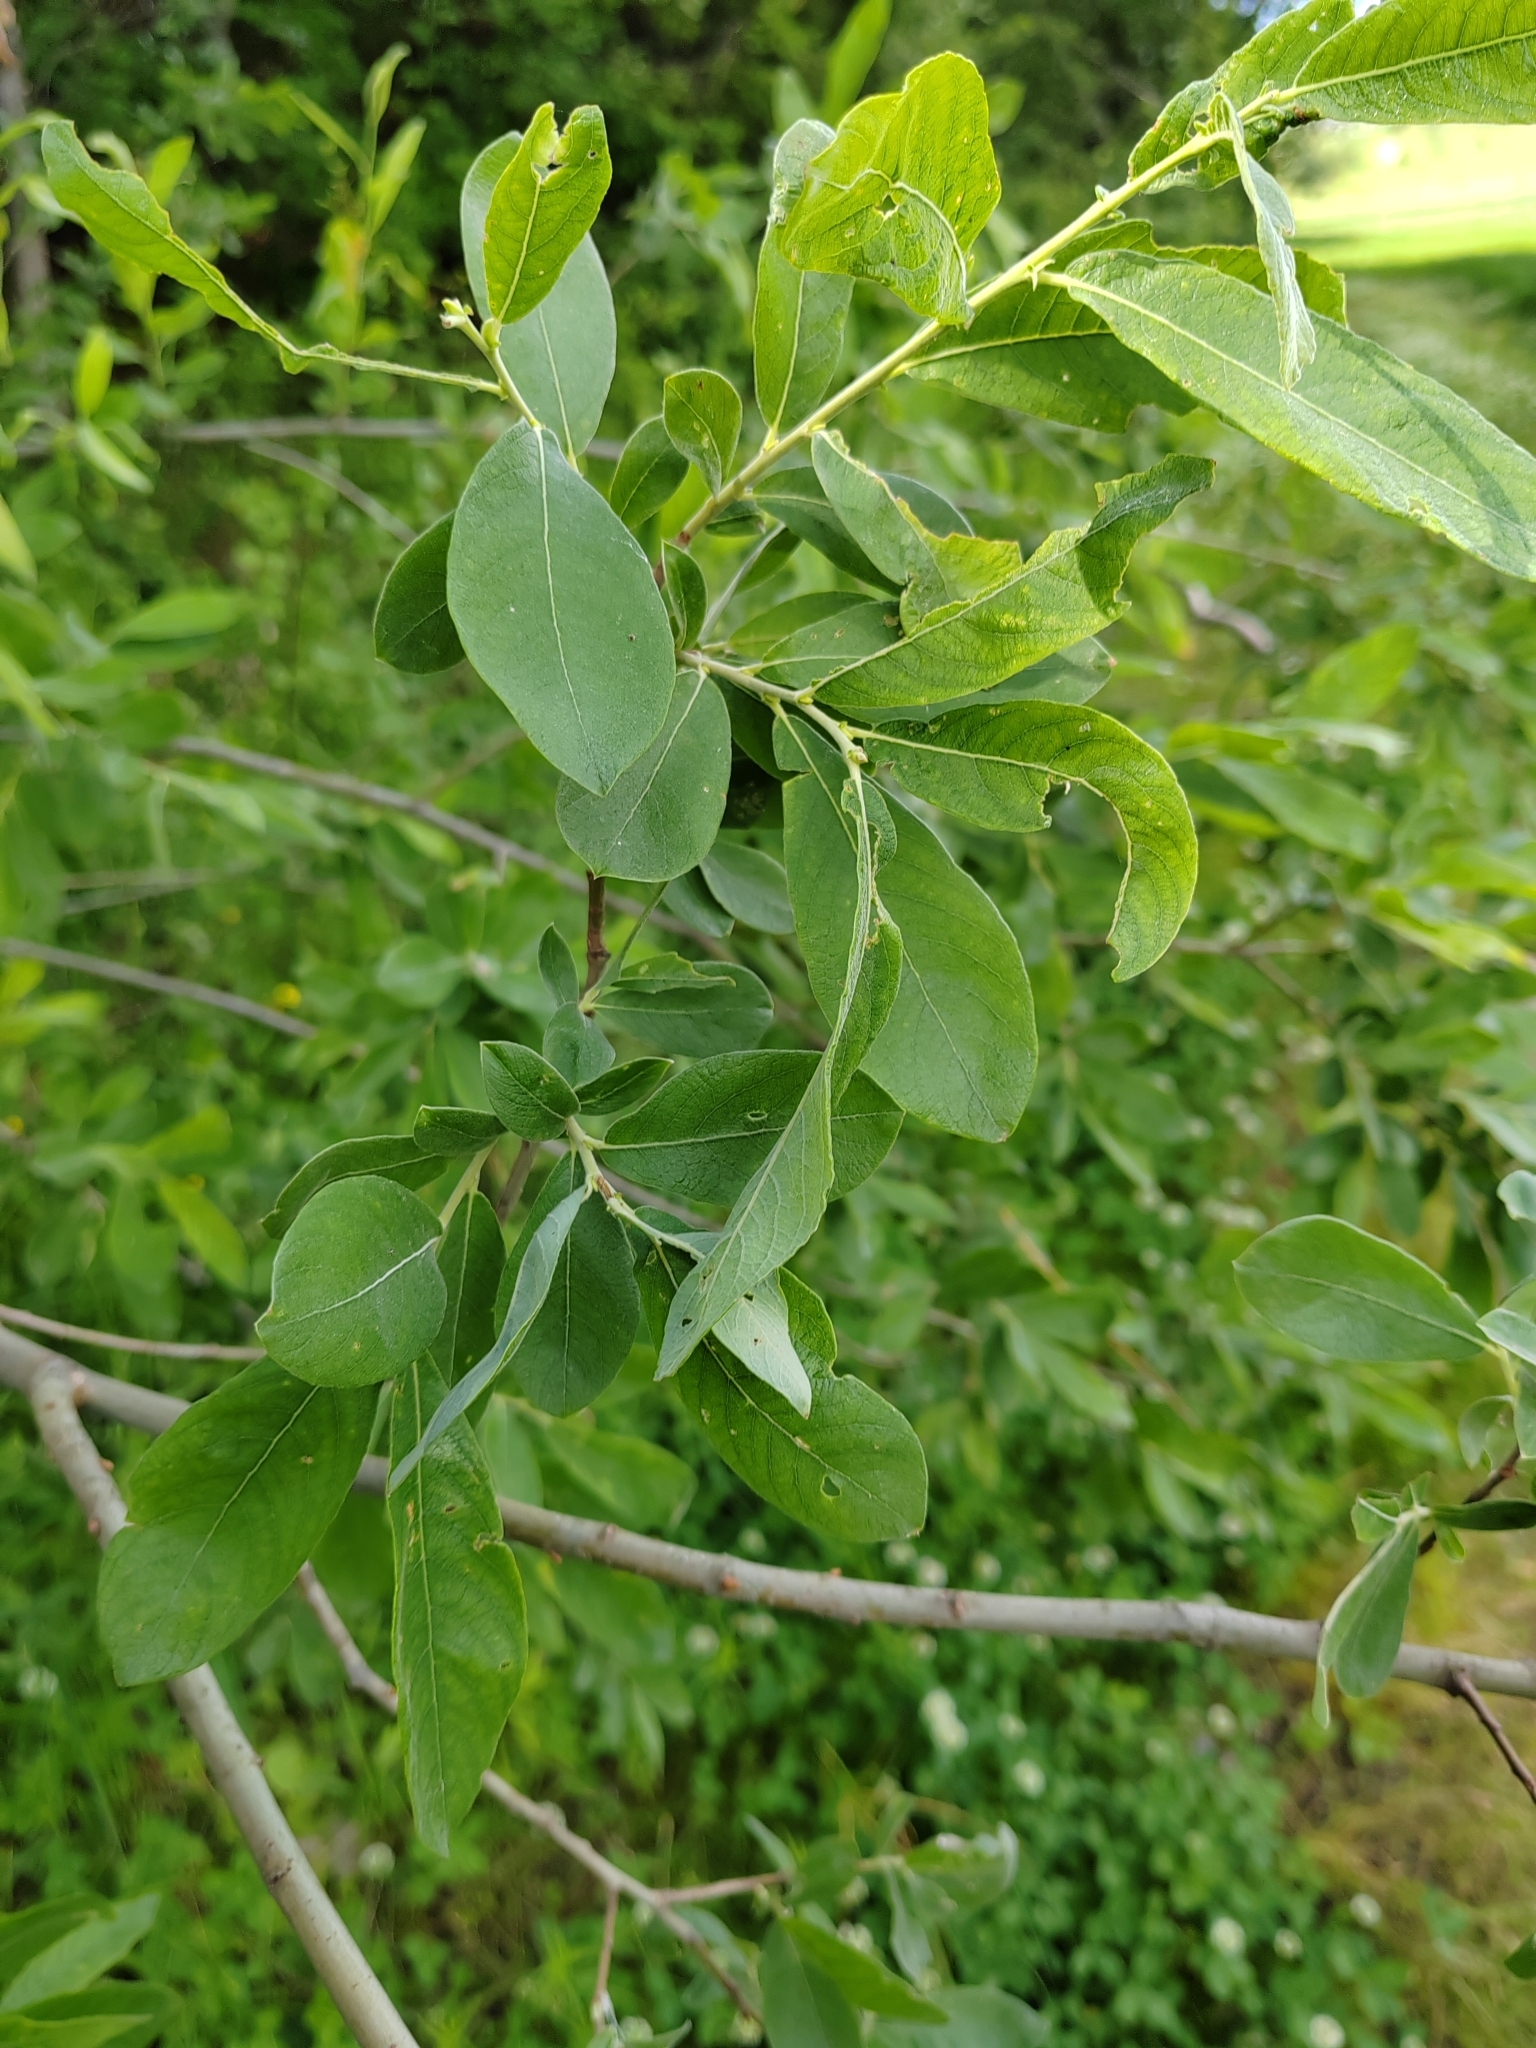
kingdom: Plantae
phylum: Tracheophyta
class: Magnoliopsida
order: Malpighiales
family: Salicaceae
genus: Salix
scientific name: Salix cinerea
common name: Common sallow
